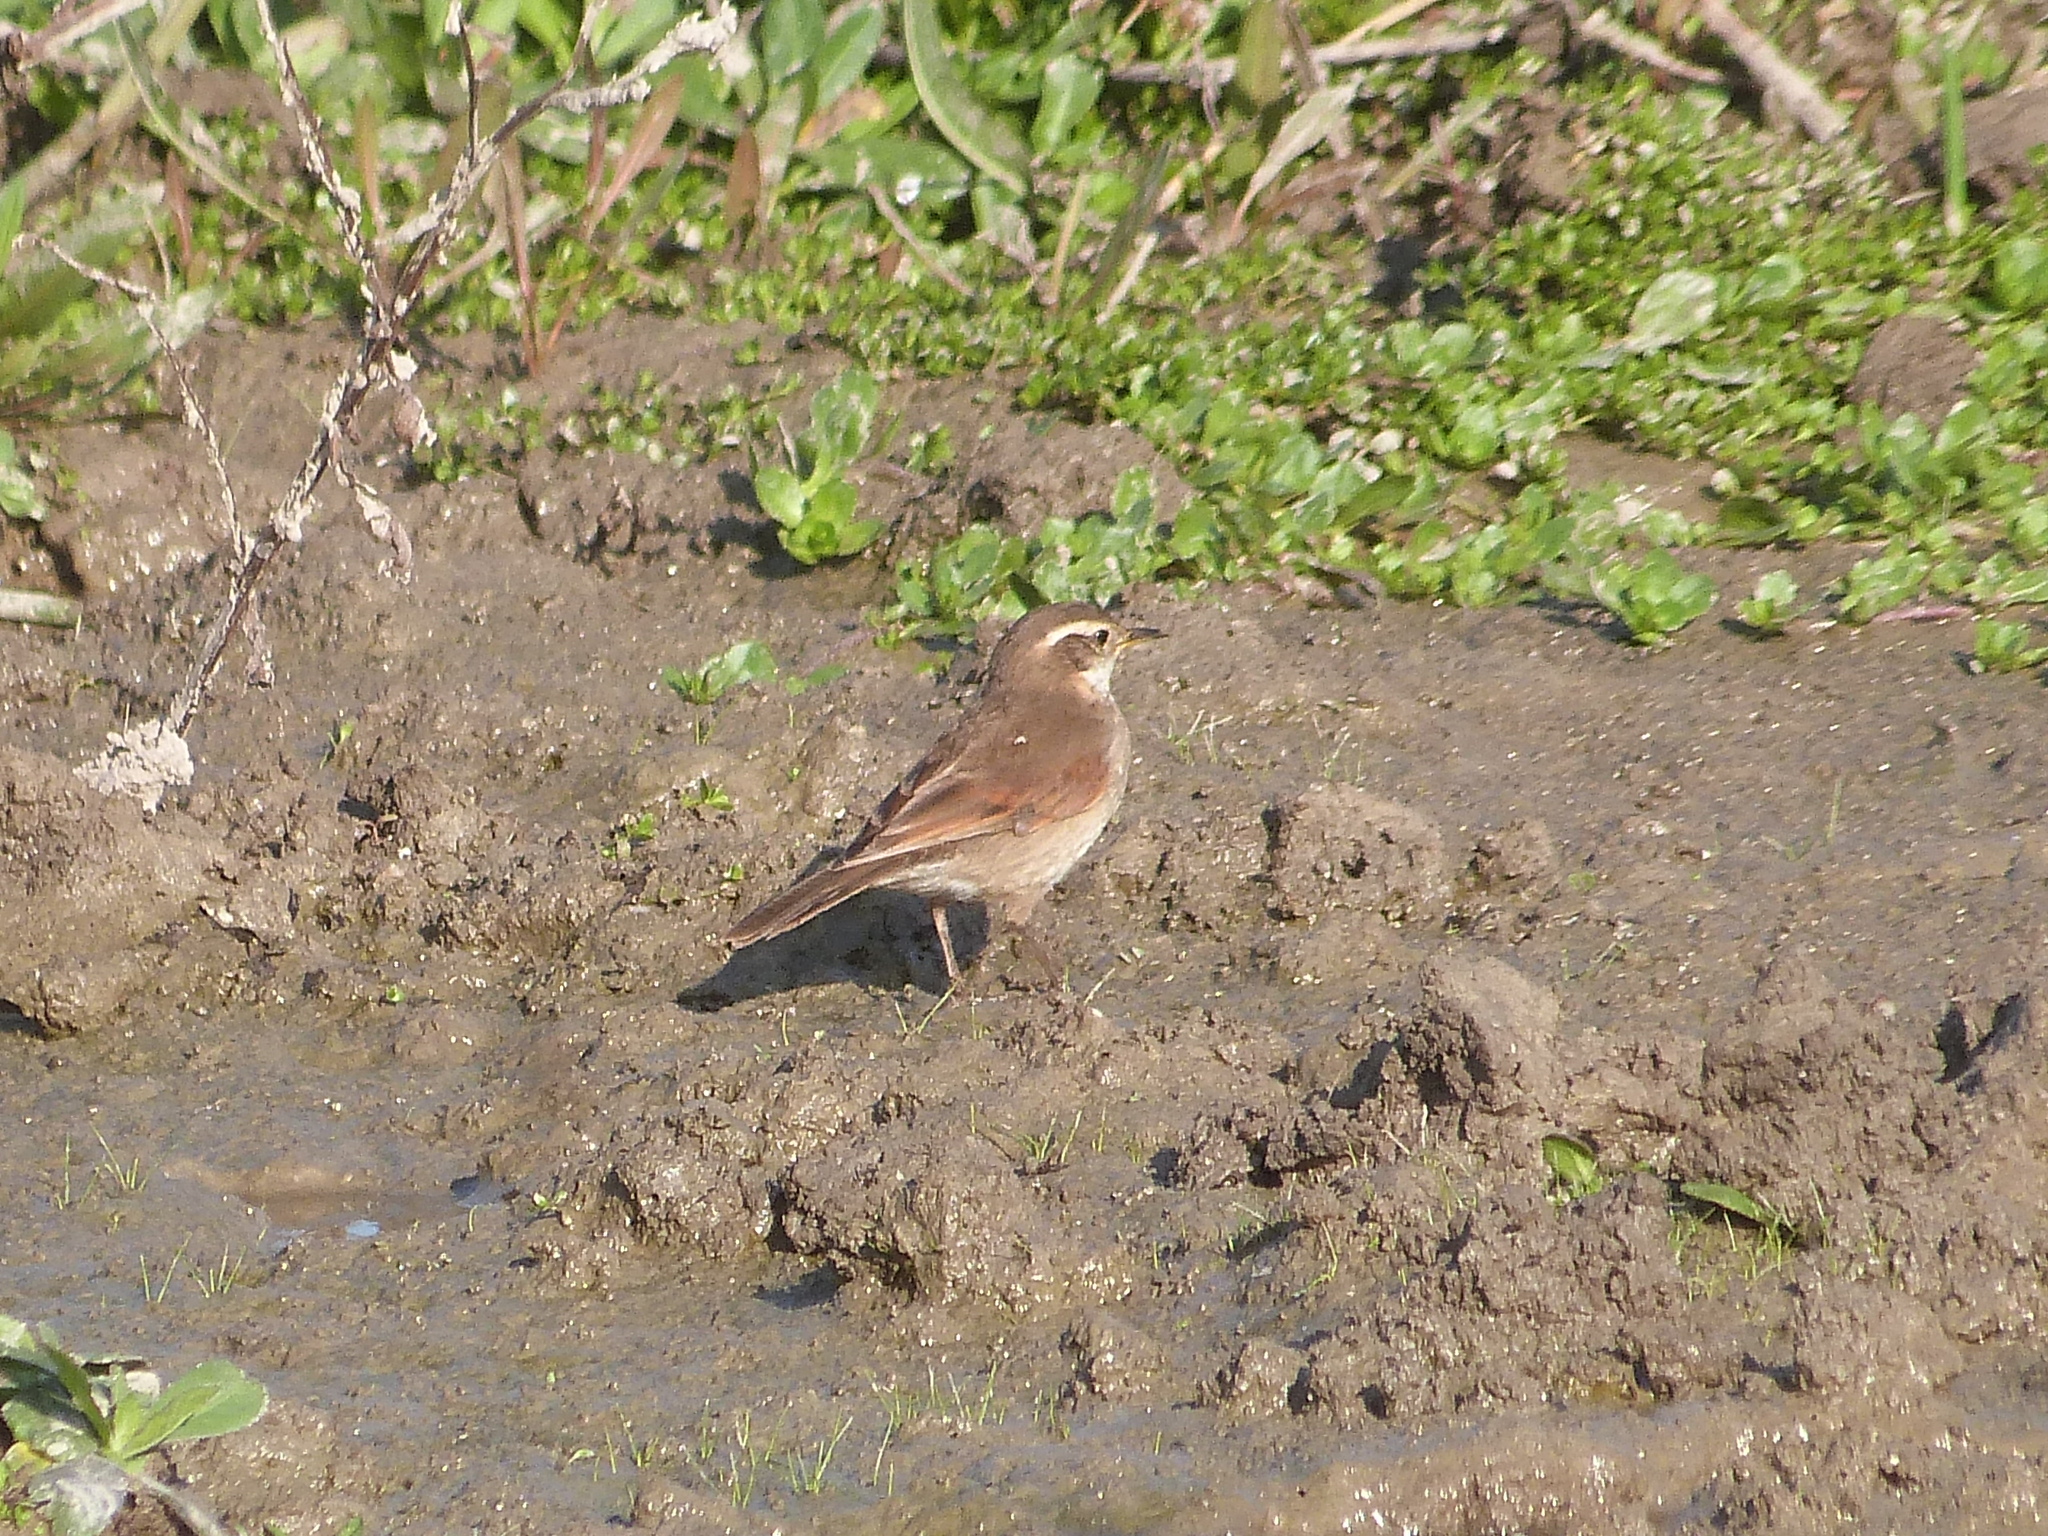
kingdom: Animalia
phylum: Chordata
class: Aves
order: Passeriformes
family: Furnariidae
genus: Cinclodes
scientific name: Cinclodes comechingonus
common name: Cordoba cinclodes
